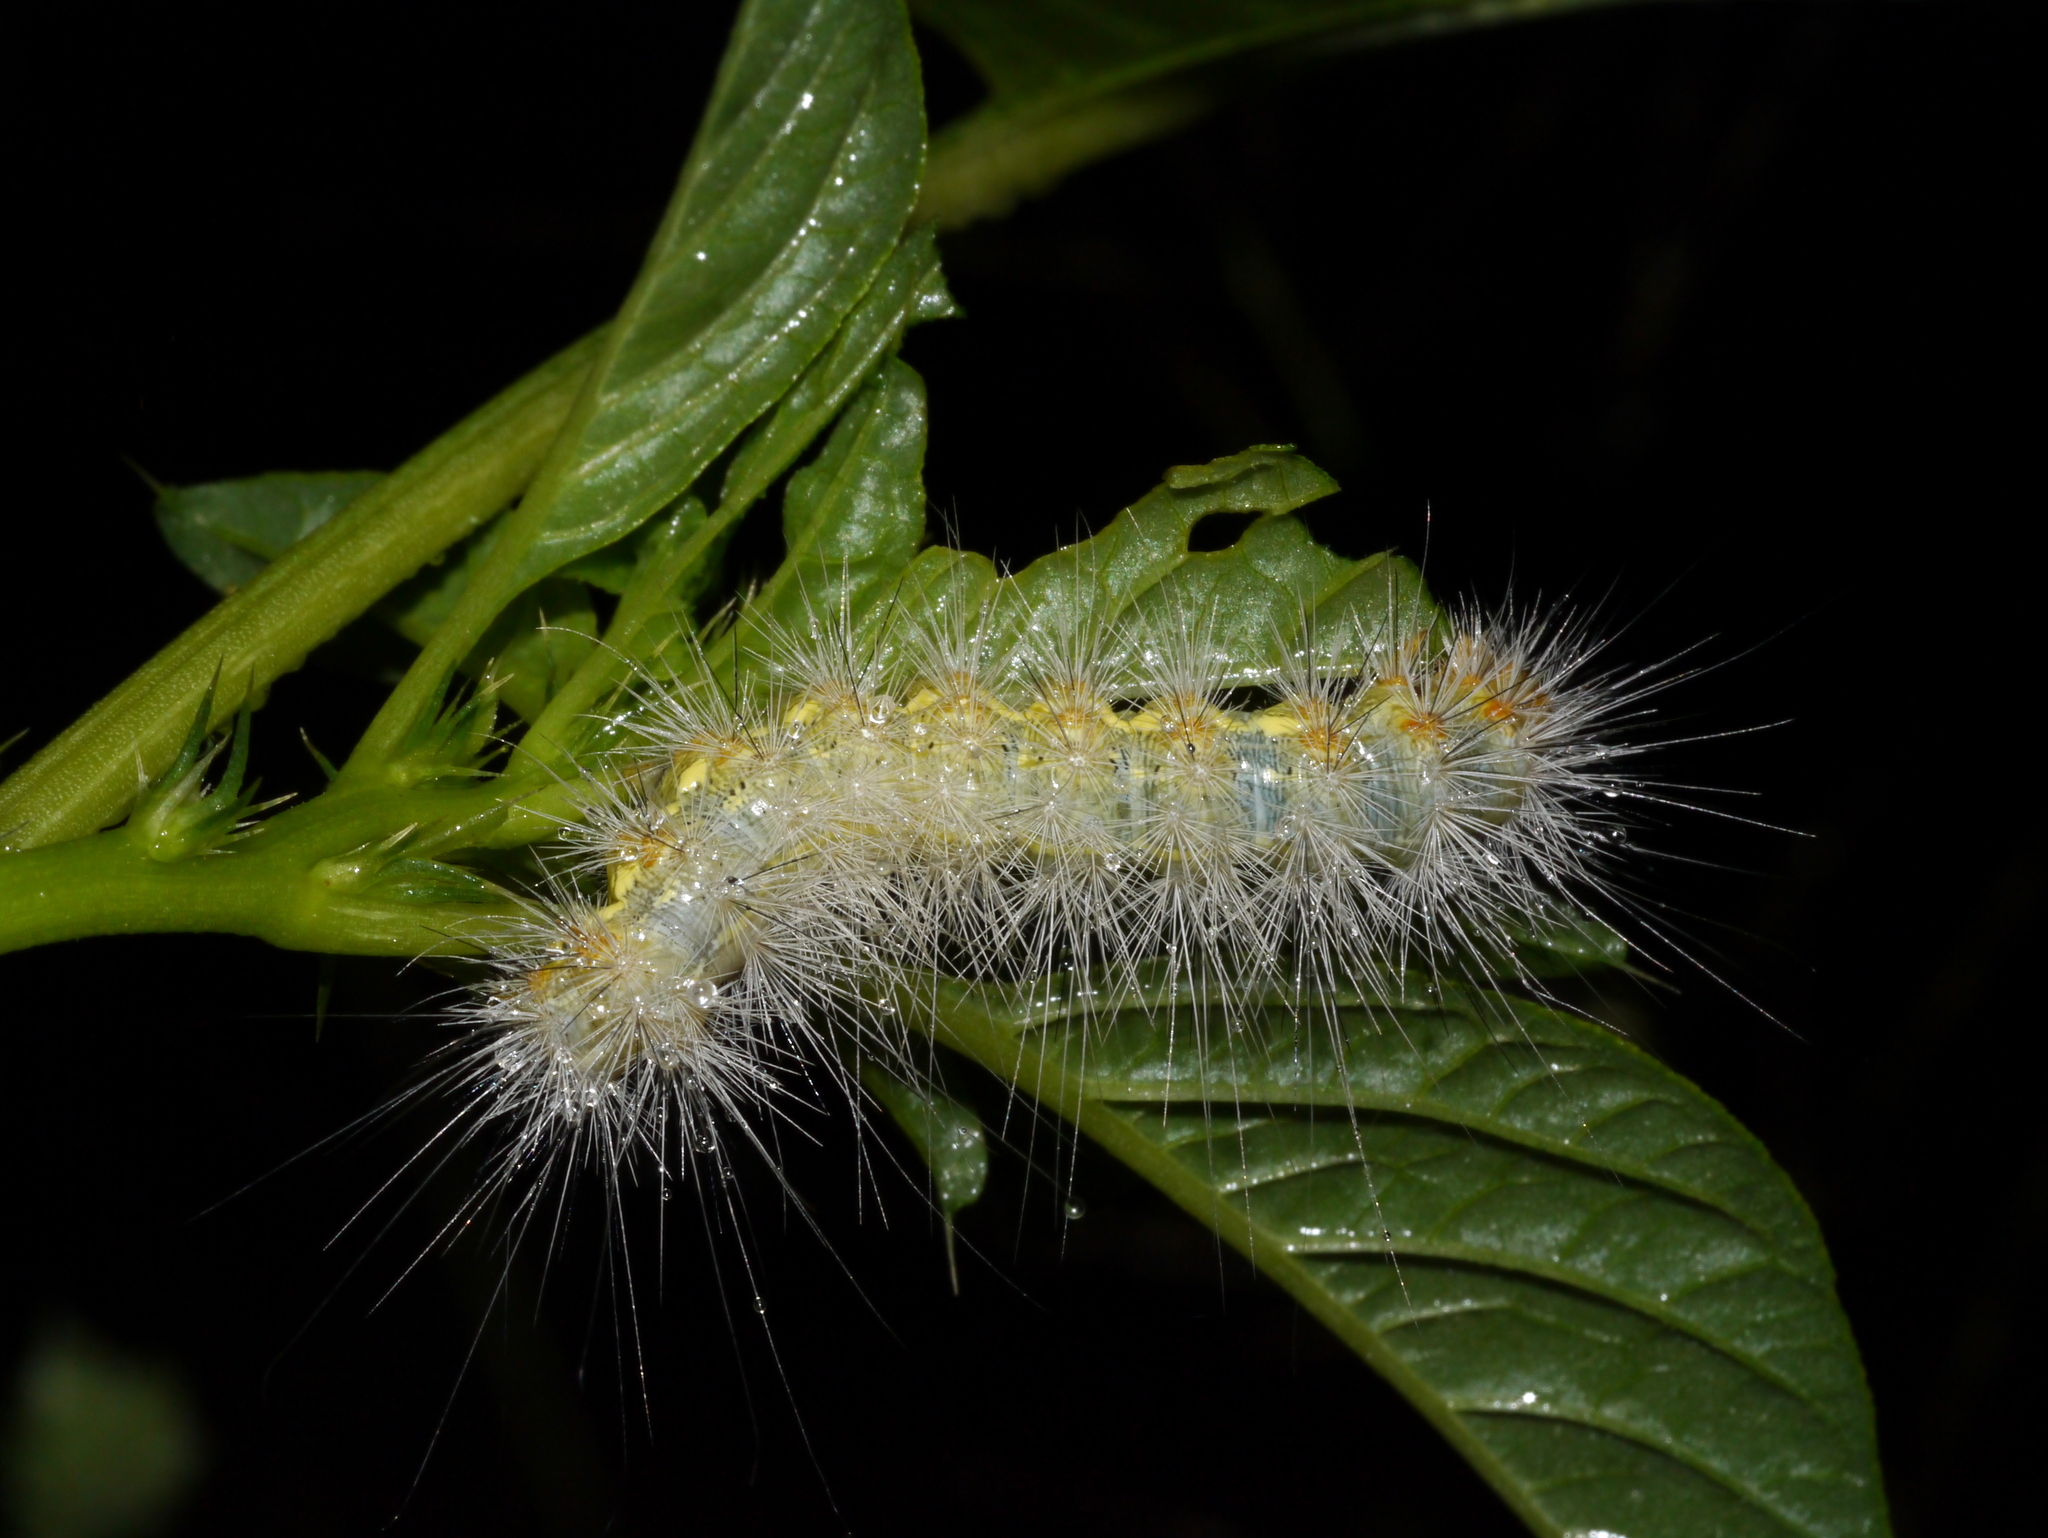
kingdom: Animalia
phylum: Arthropoda
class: Insecta
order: Lepidoptera
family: Erebidae
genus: Hypercompe
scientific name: Hypercompe suffusa
